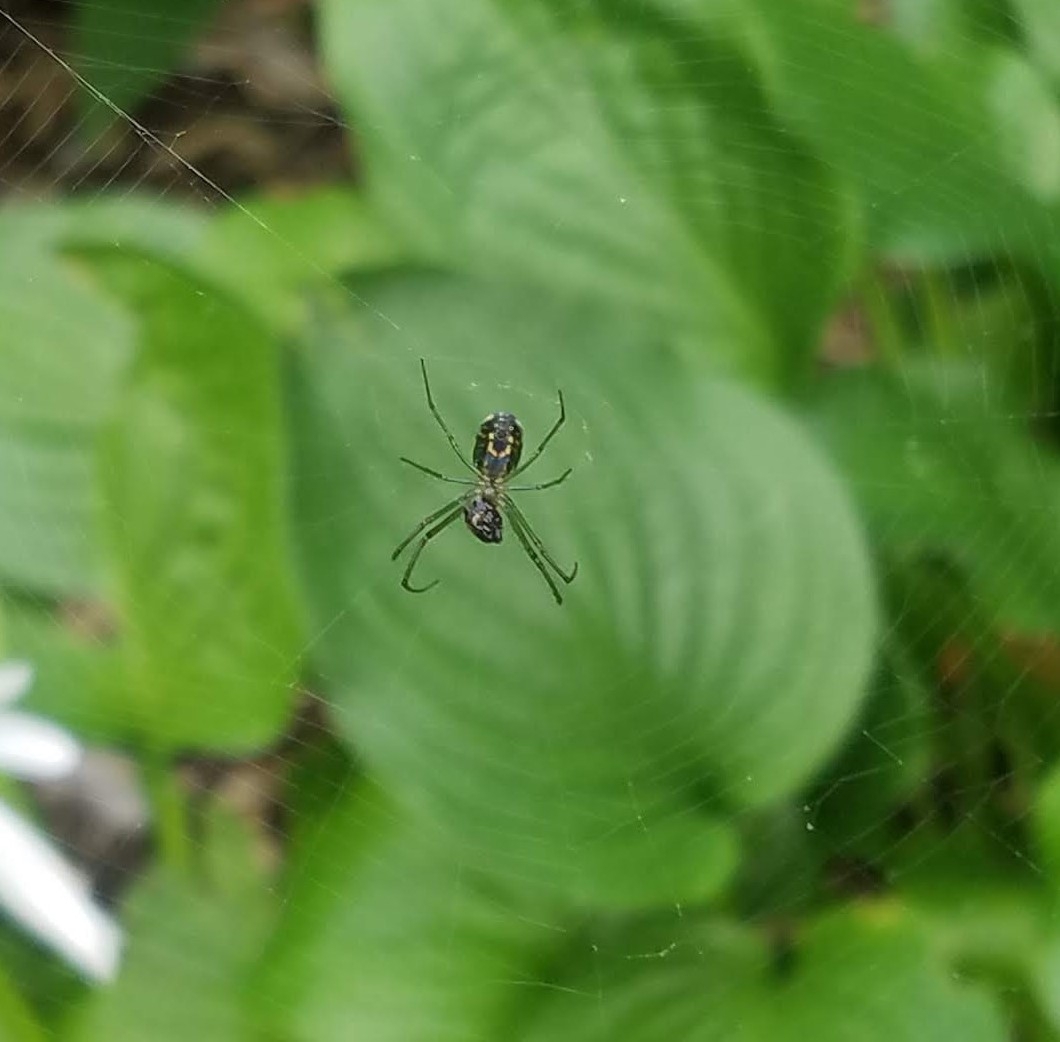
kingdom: Animalia
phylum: Arthropoda
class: Arachnida
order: Araneae
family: Tetragnathidae
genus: Leucauge
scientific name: Leucauge venusta
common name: Longjawed orb weavers
